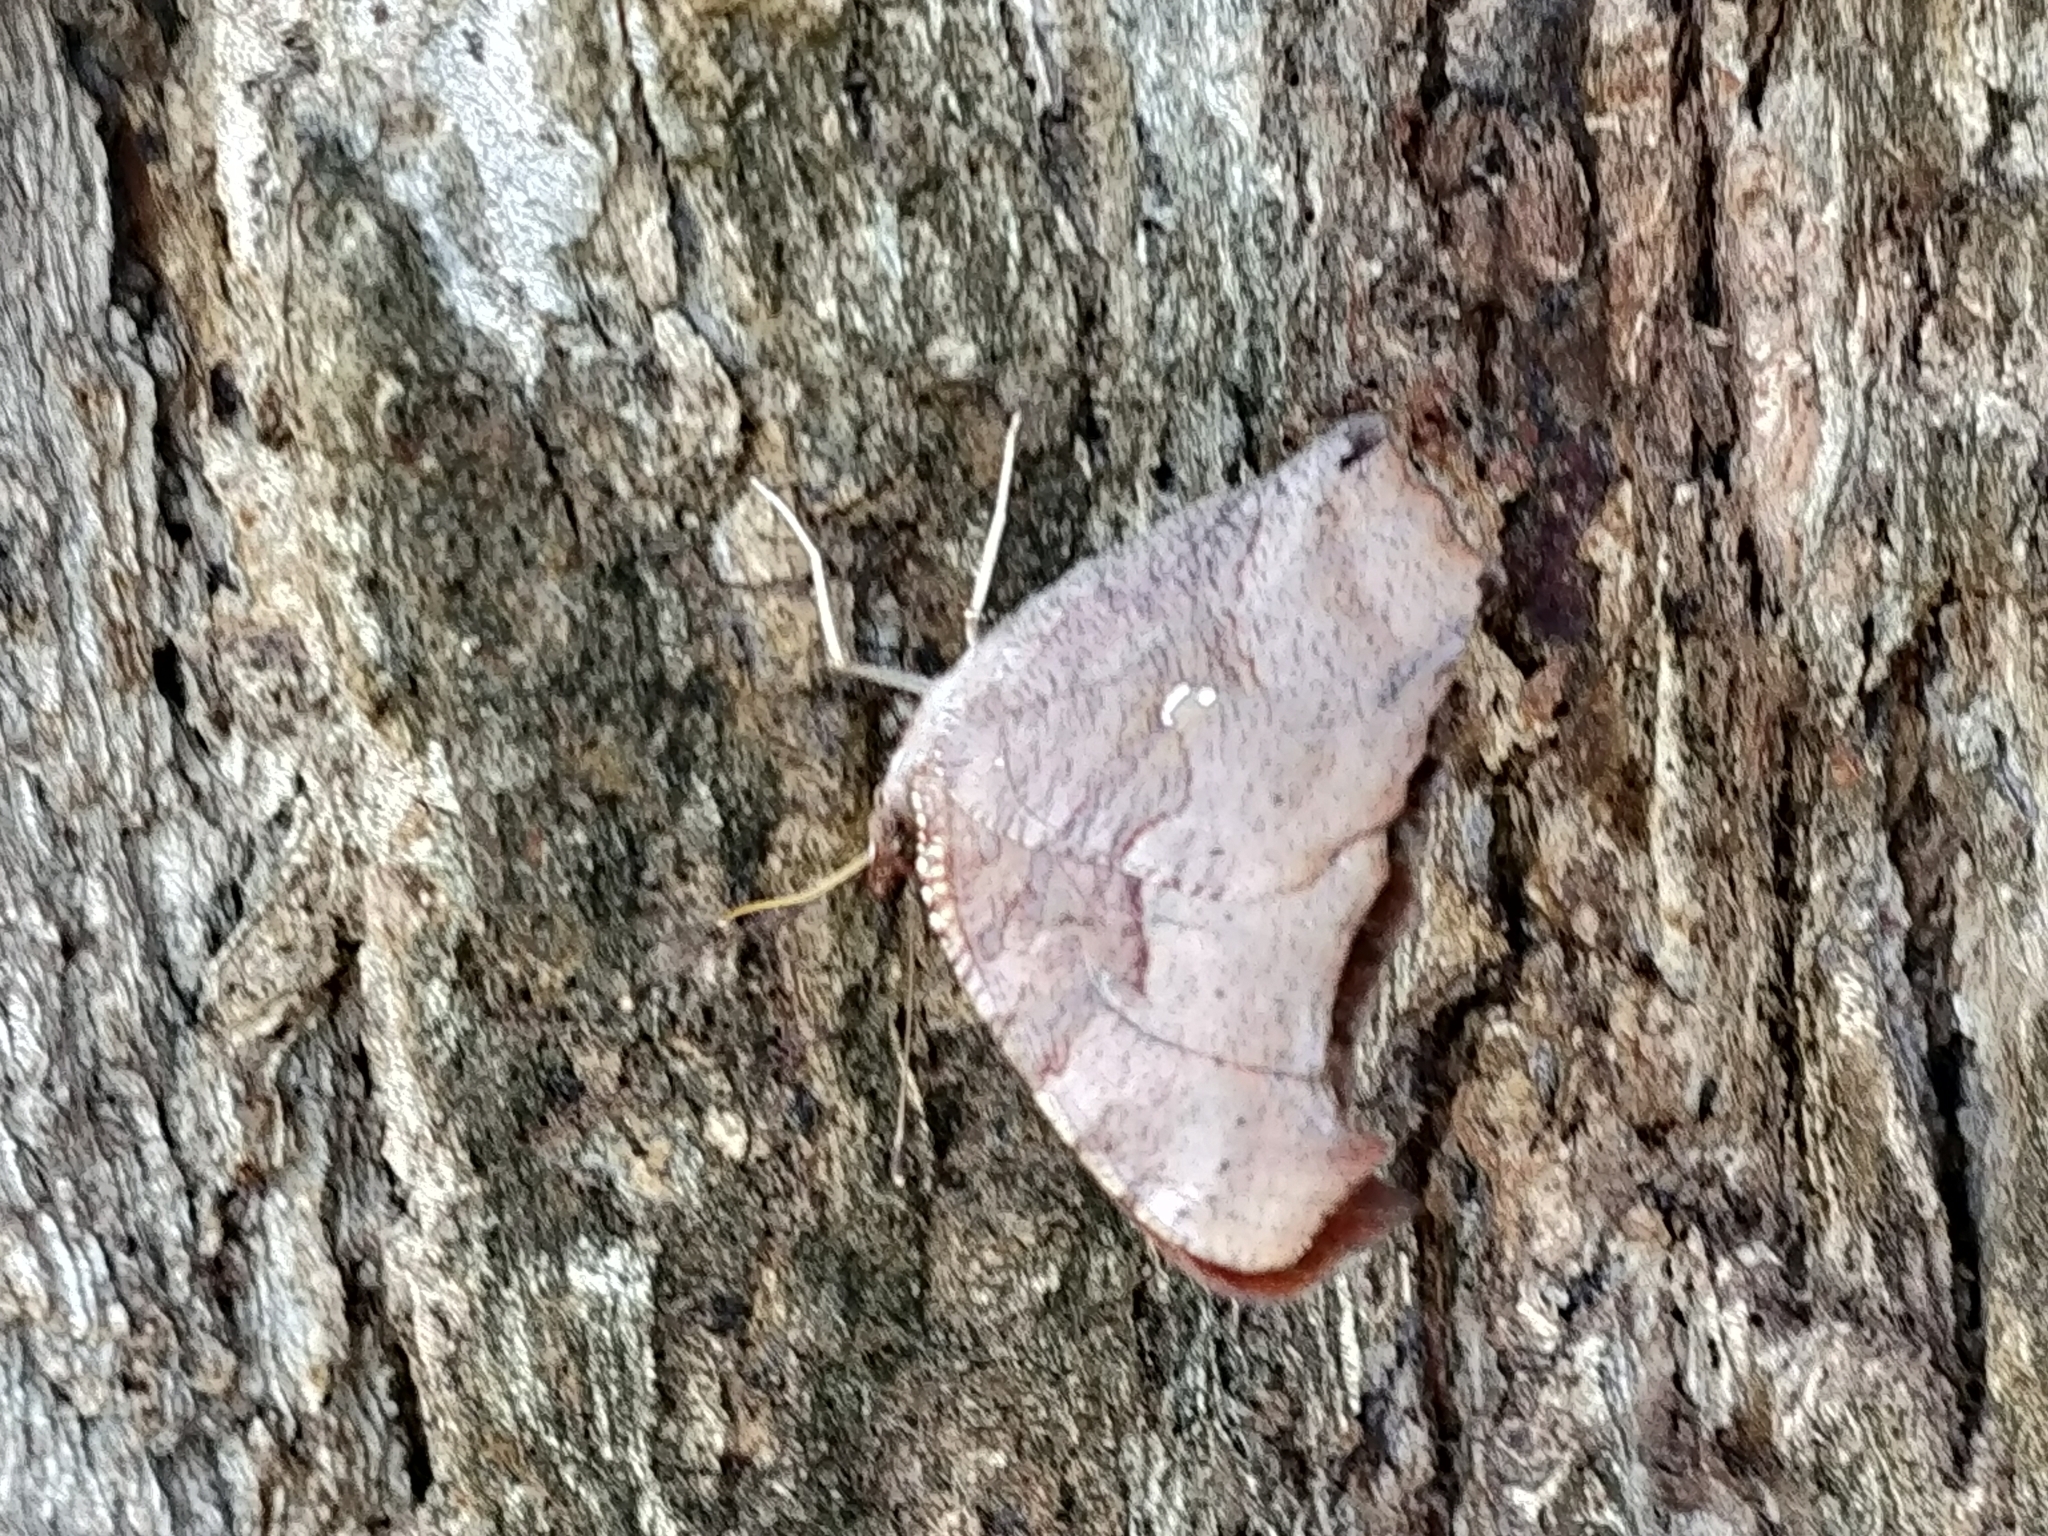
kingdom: Animalia
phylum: Arthropoda
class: Insecta
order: Lepidoptera
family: Nymphalidae
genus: Polygonia
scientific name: Polygonia interrogationis
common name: Question mark
